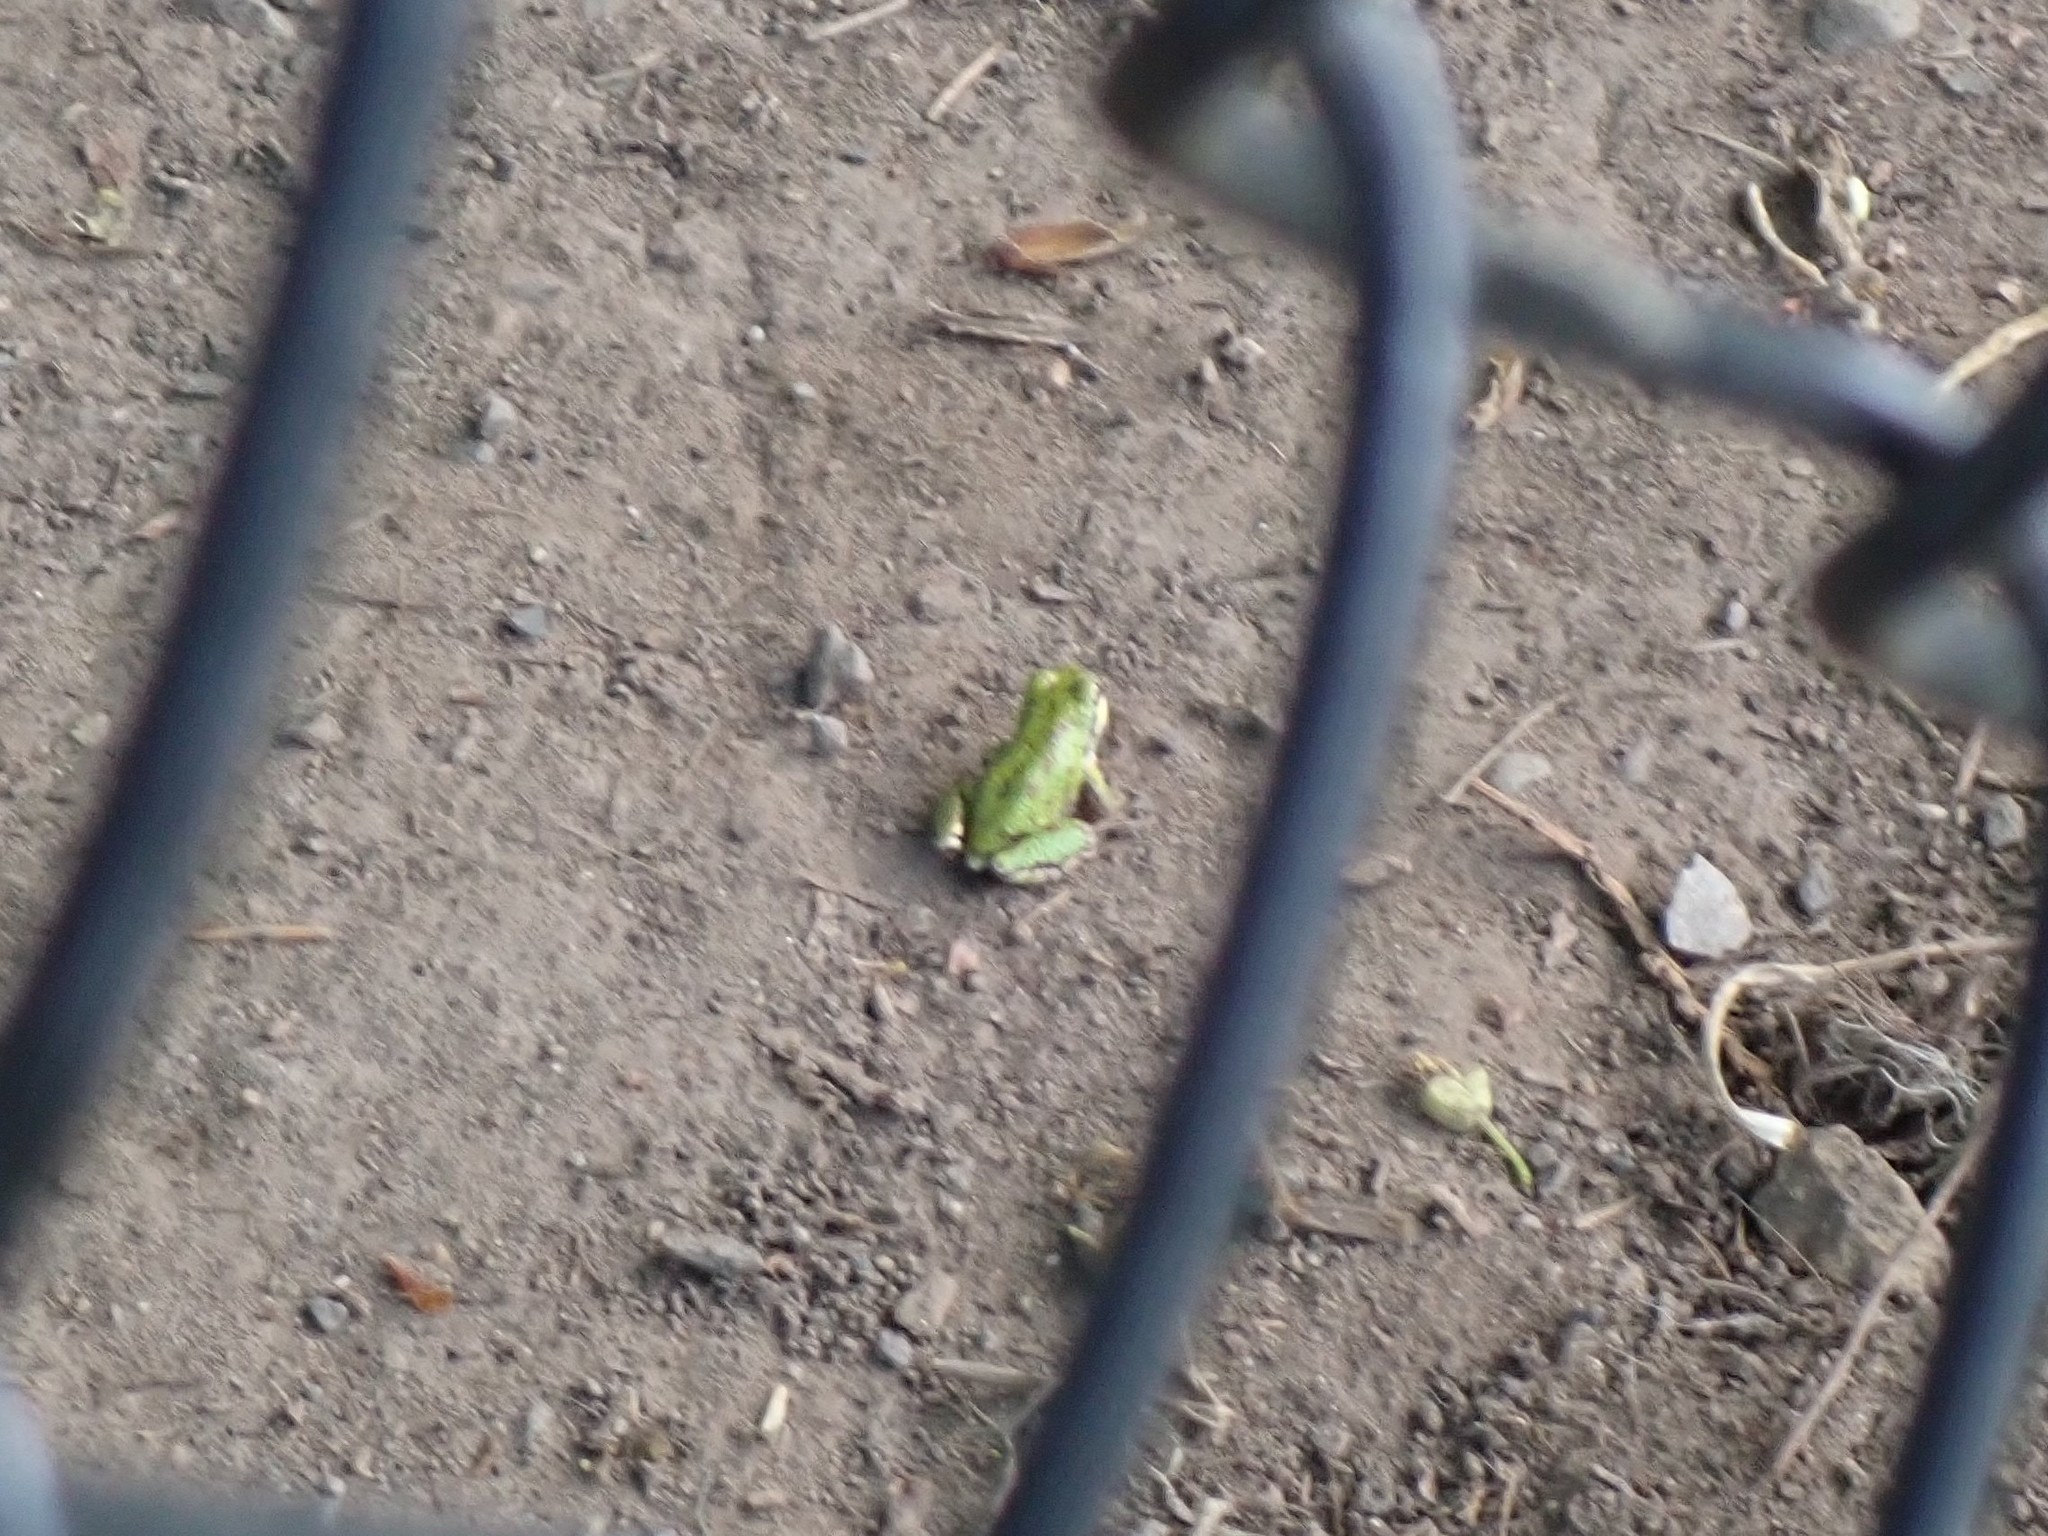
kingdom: Animalia
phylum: Chordata
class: Amphibia
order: Anura
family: Hylidae
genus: Pseudacris
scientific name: Pseudacris regilla
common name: Pacific chorus frog
